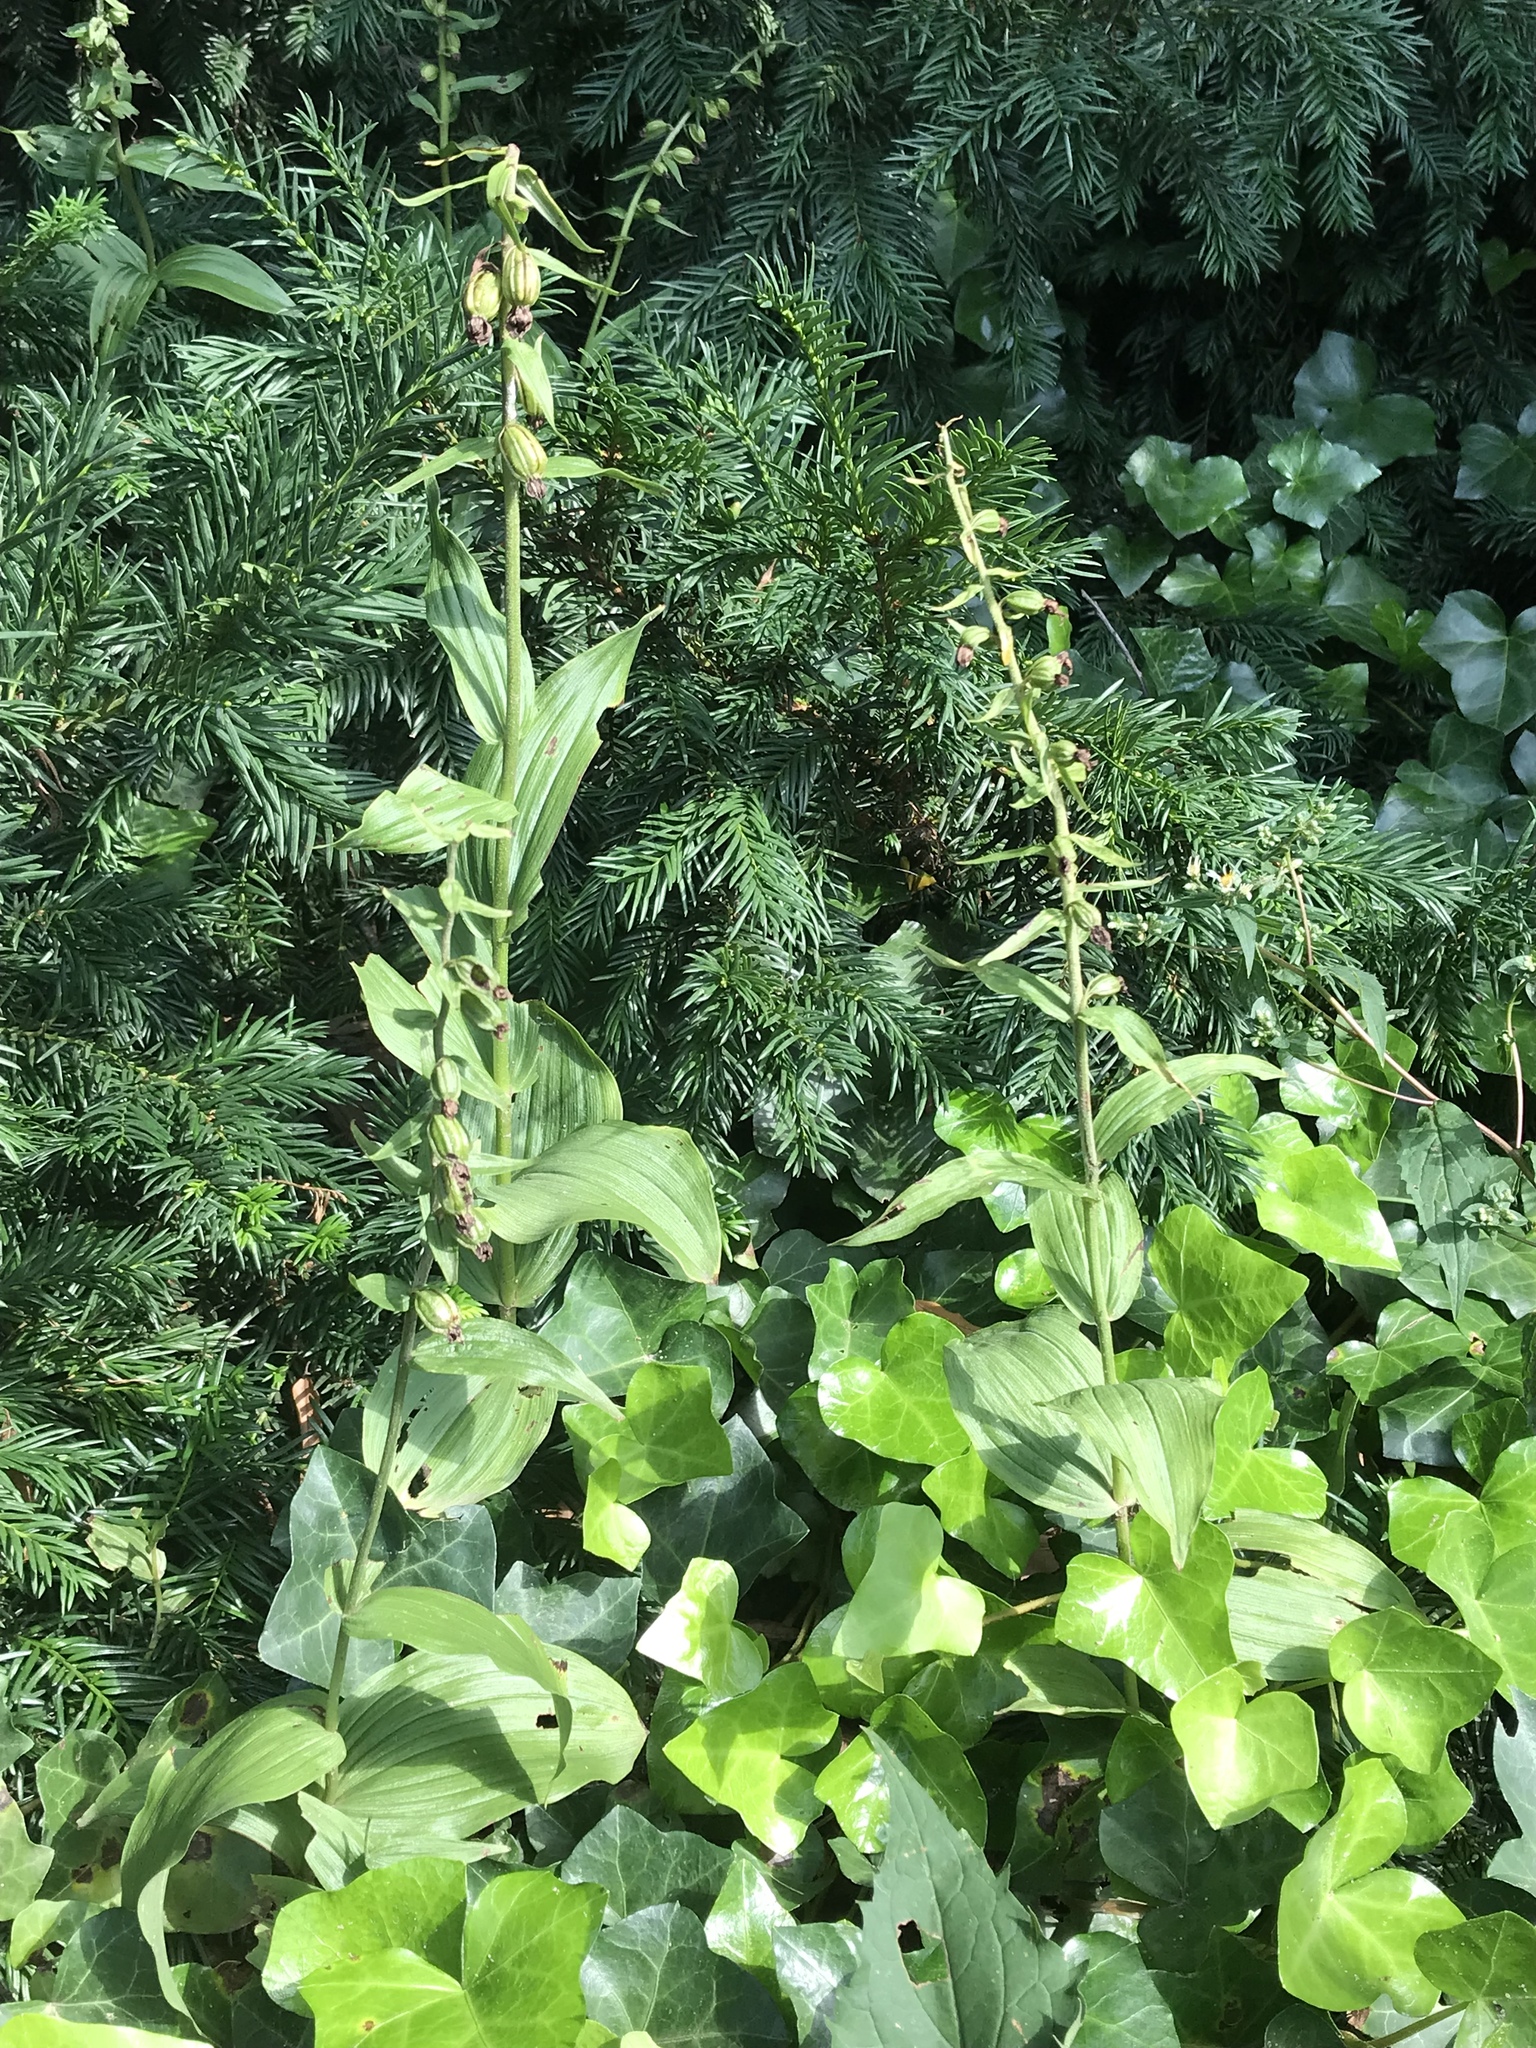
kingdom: Plantae
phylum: Tracheophyta
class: Liliopsida
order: Asparagales
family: Orchidaceae
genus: Epipactis
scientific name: Epipactis helleborine
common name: Broad-leaved helleborine
